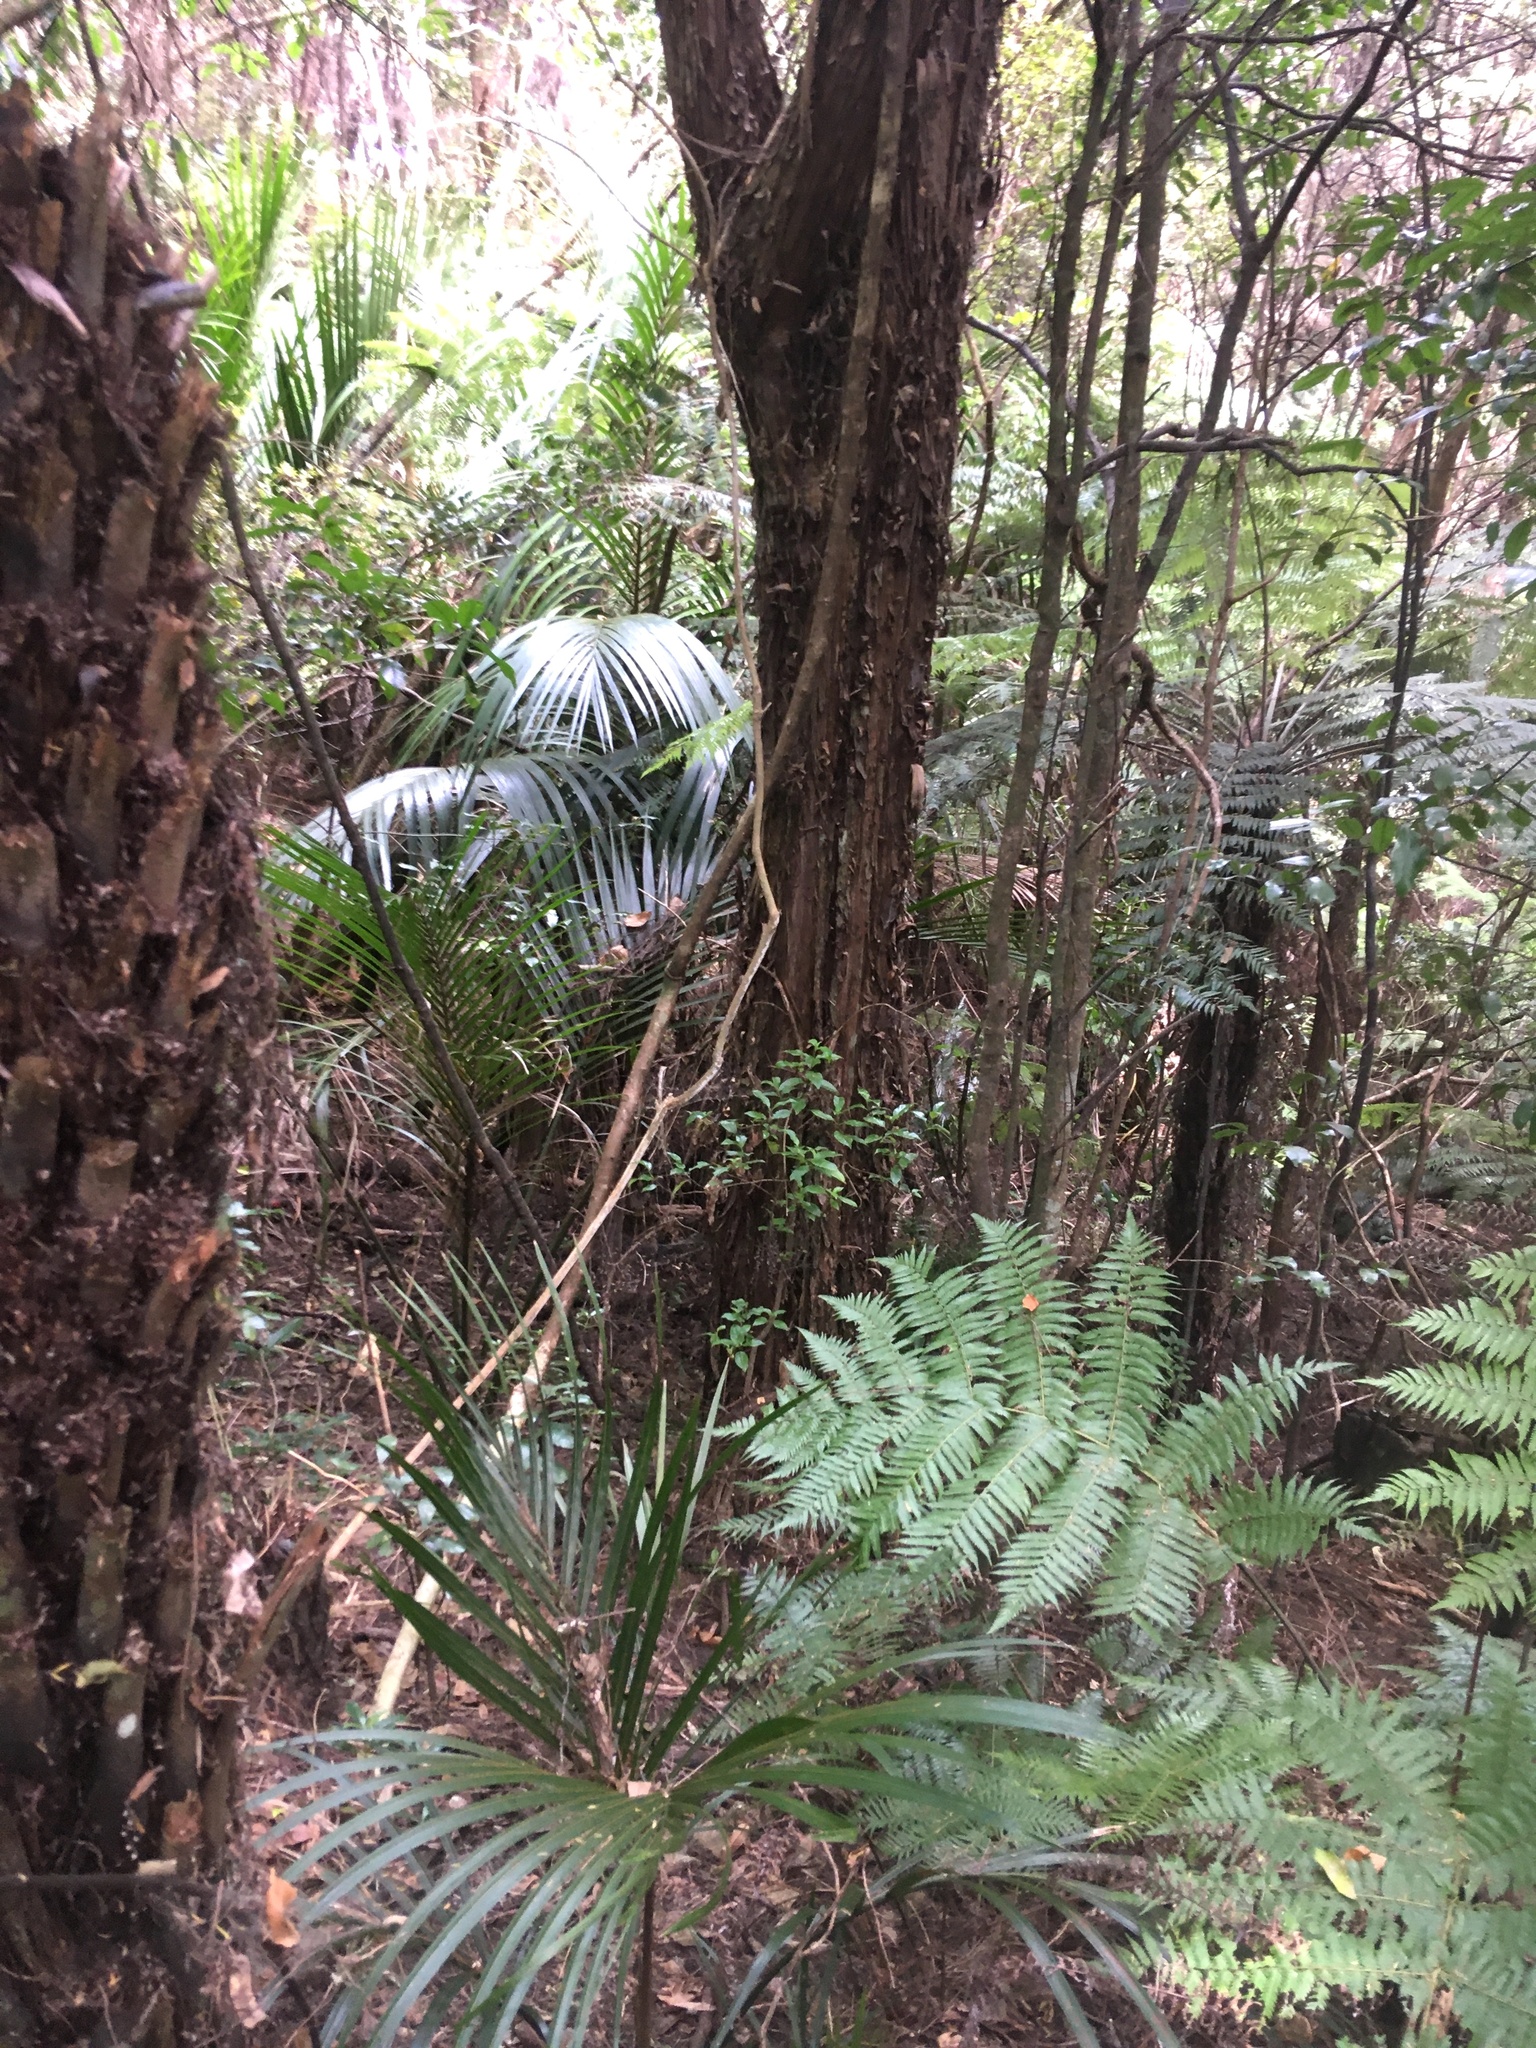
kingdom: Plantae
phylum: Tracheophyta
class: Liliopsida
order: Arecales
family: Arecaceae
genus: Rhopalostylis
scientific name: Rhopalostylis sapida
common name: Feather-duster palm
